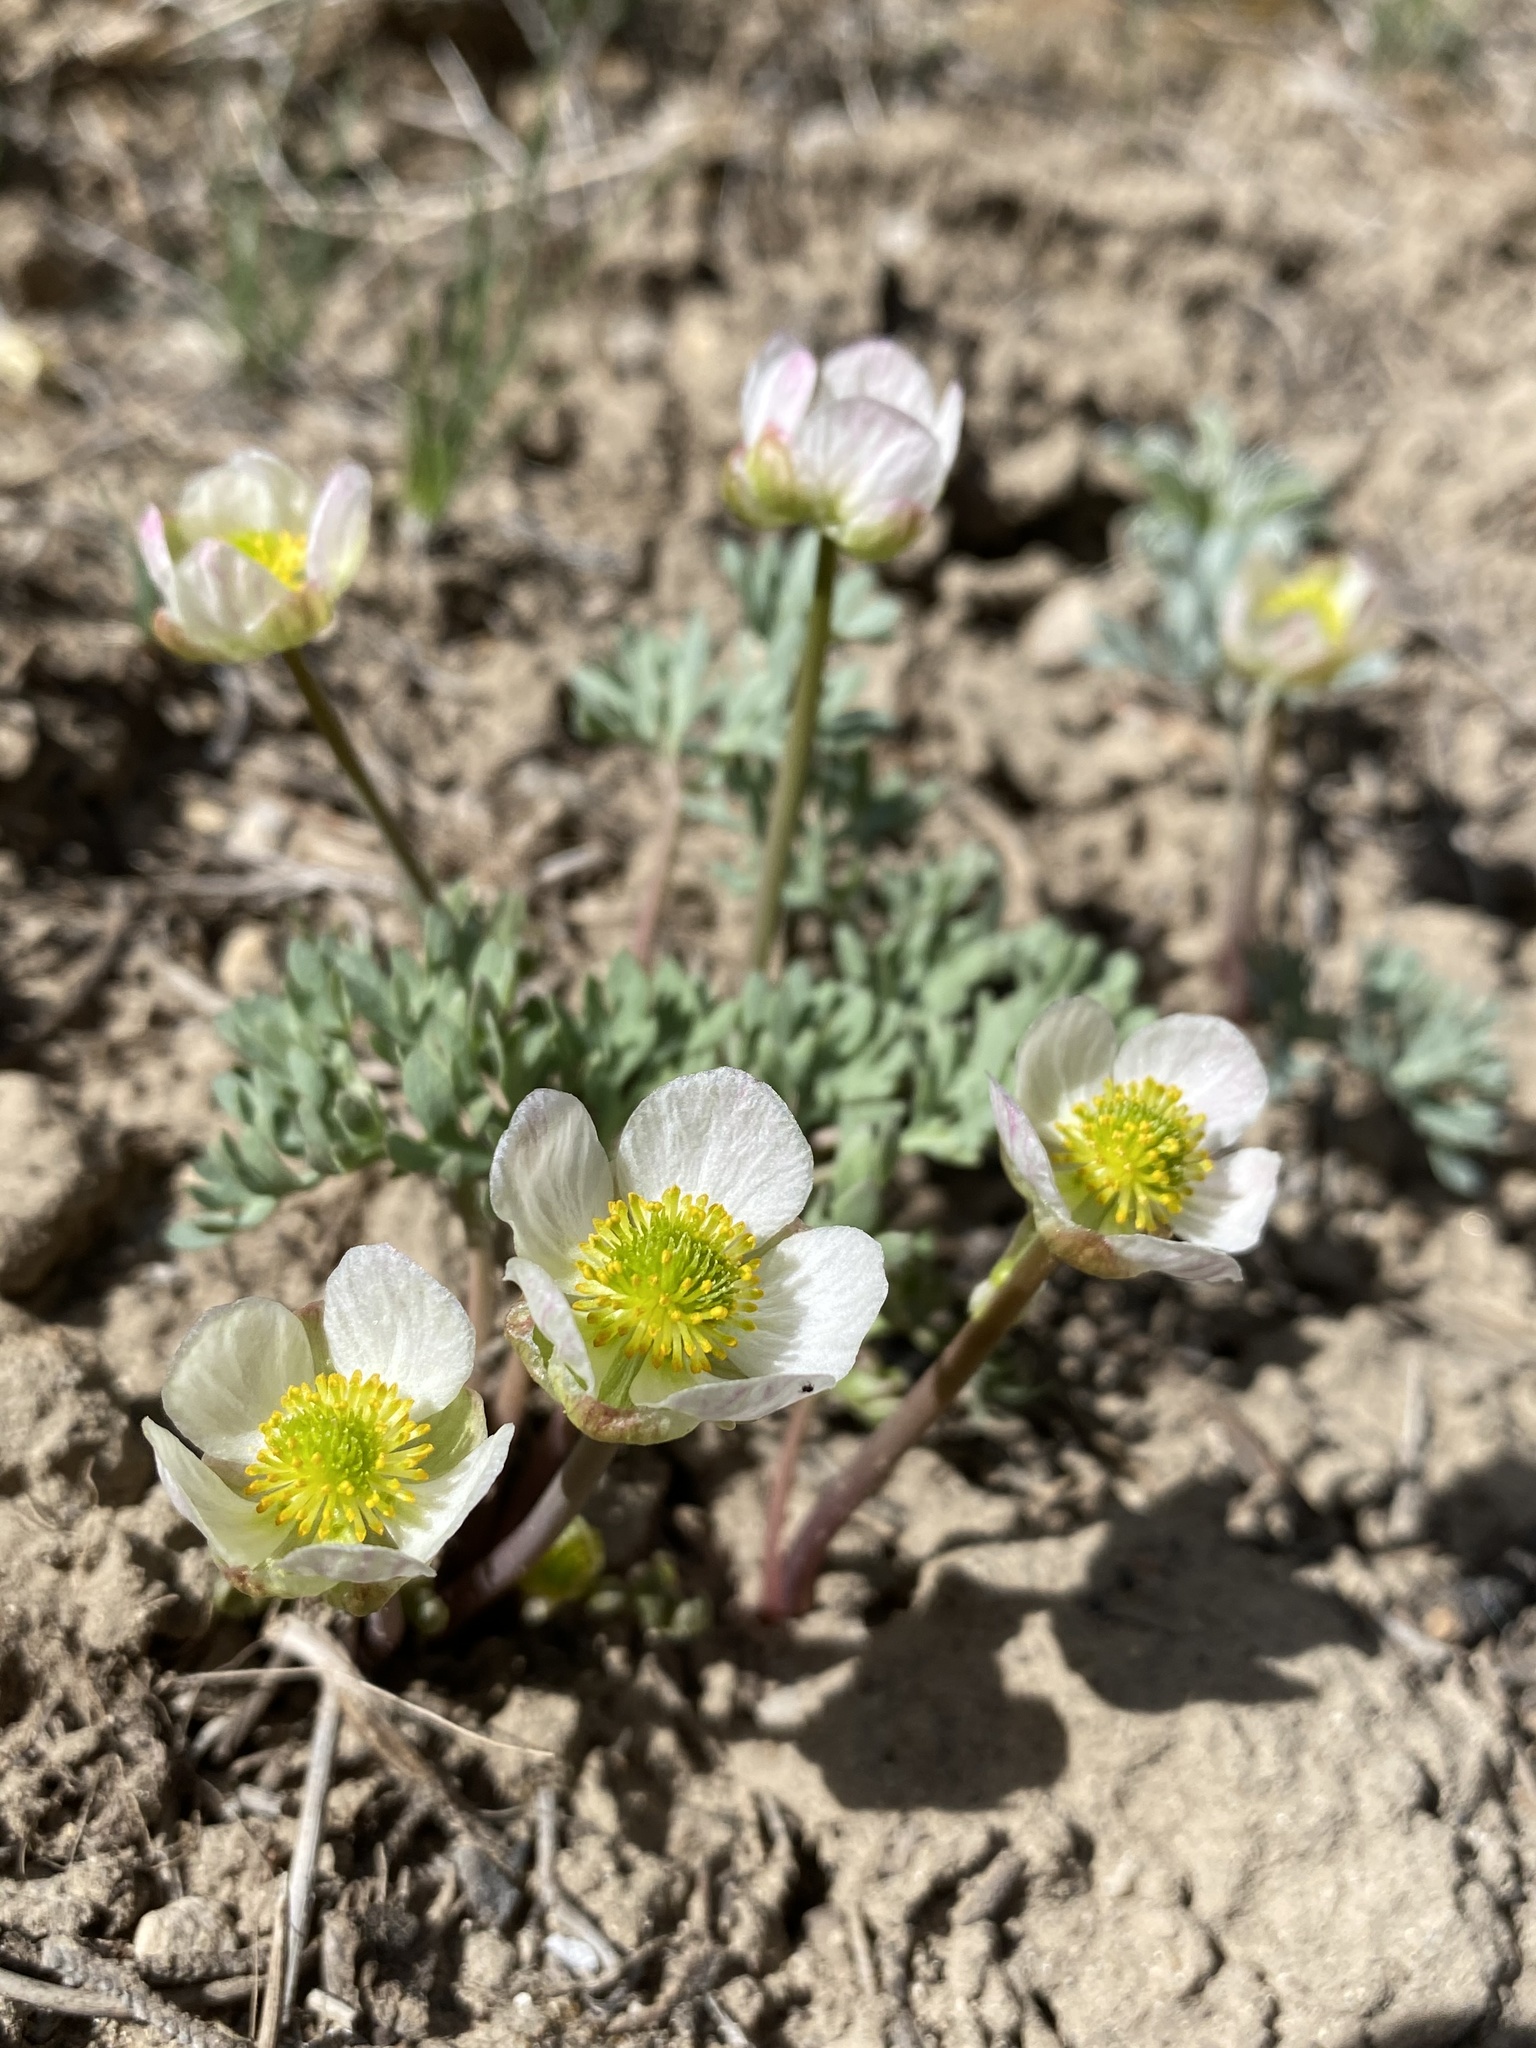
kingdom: Plantae
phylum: Tracheophyta
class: Magnoliopsida
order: Ranunculales
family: Ranunculaceae
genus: Beckwithia
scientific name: Beckwithia andersonii
